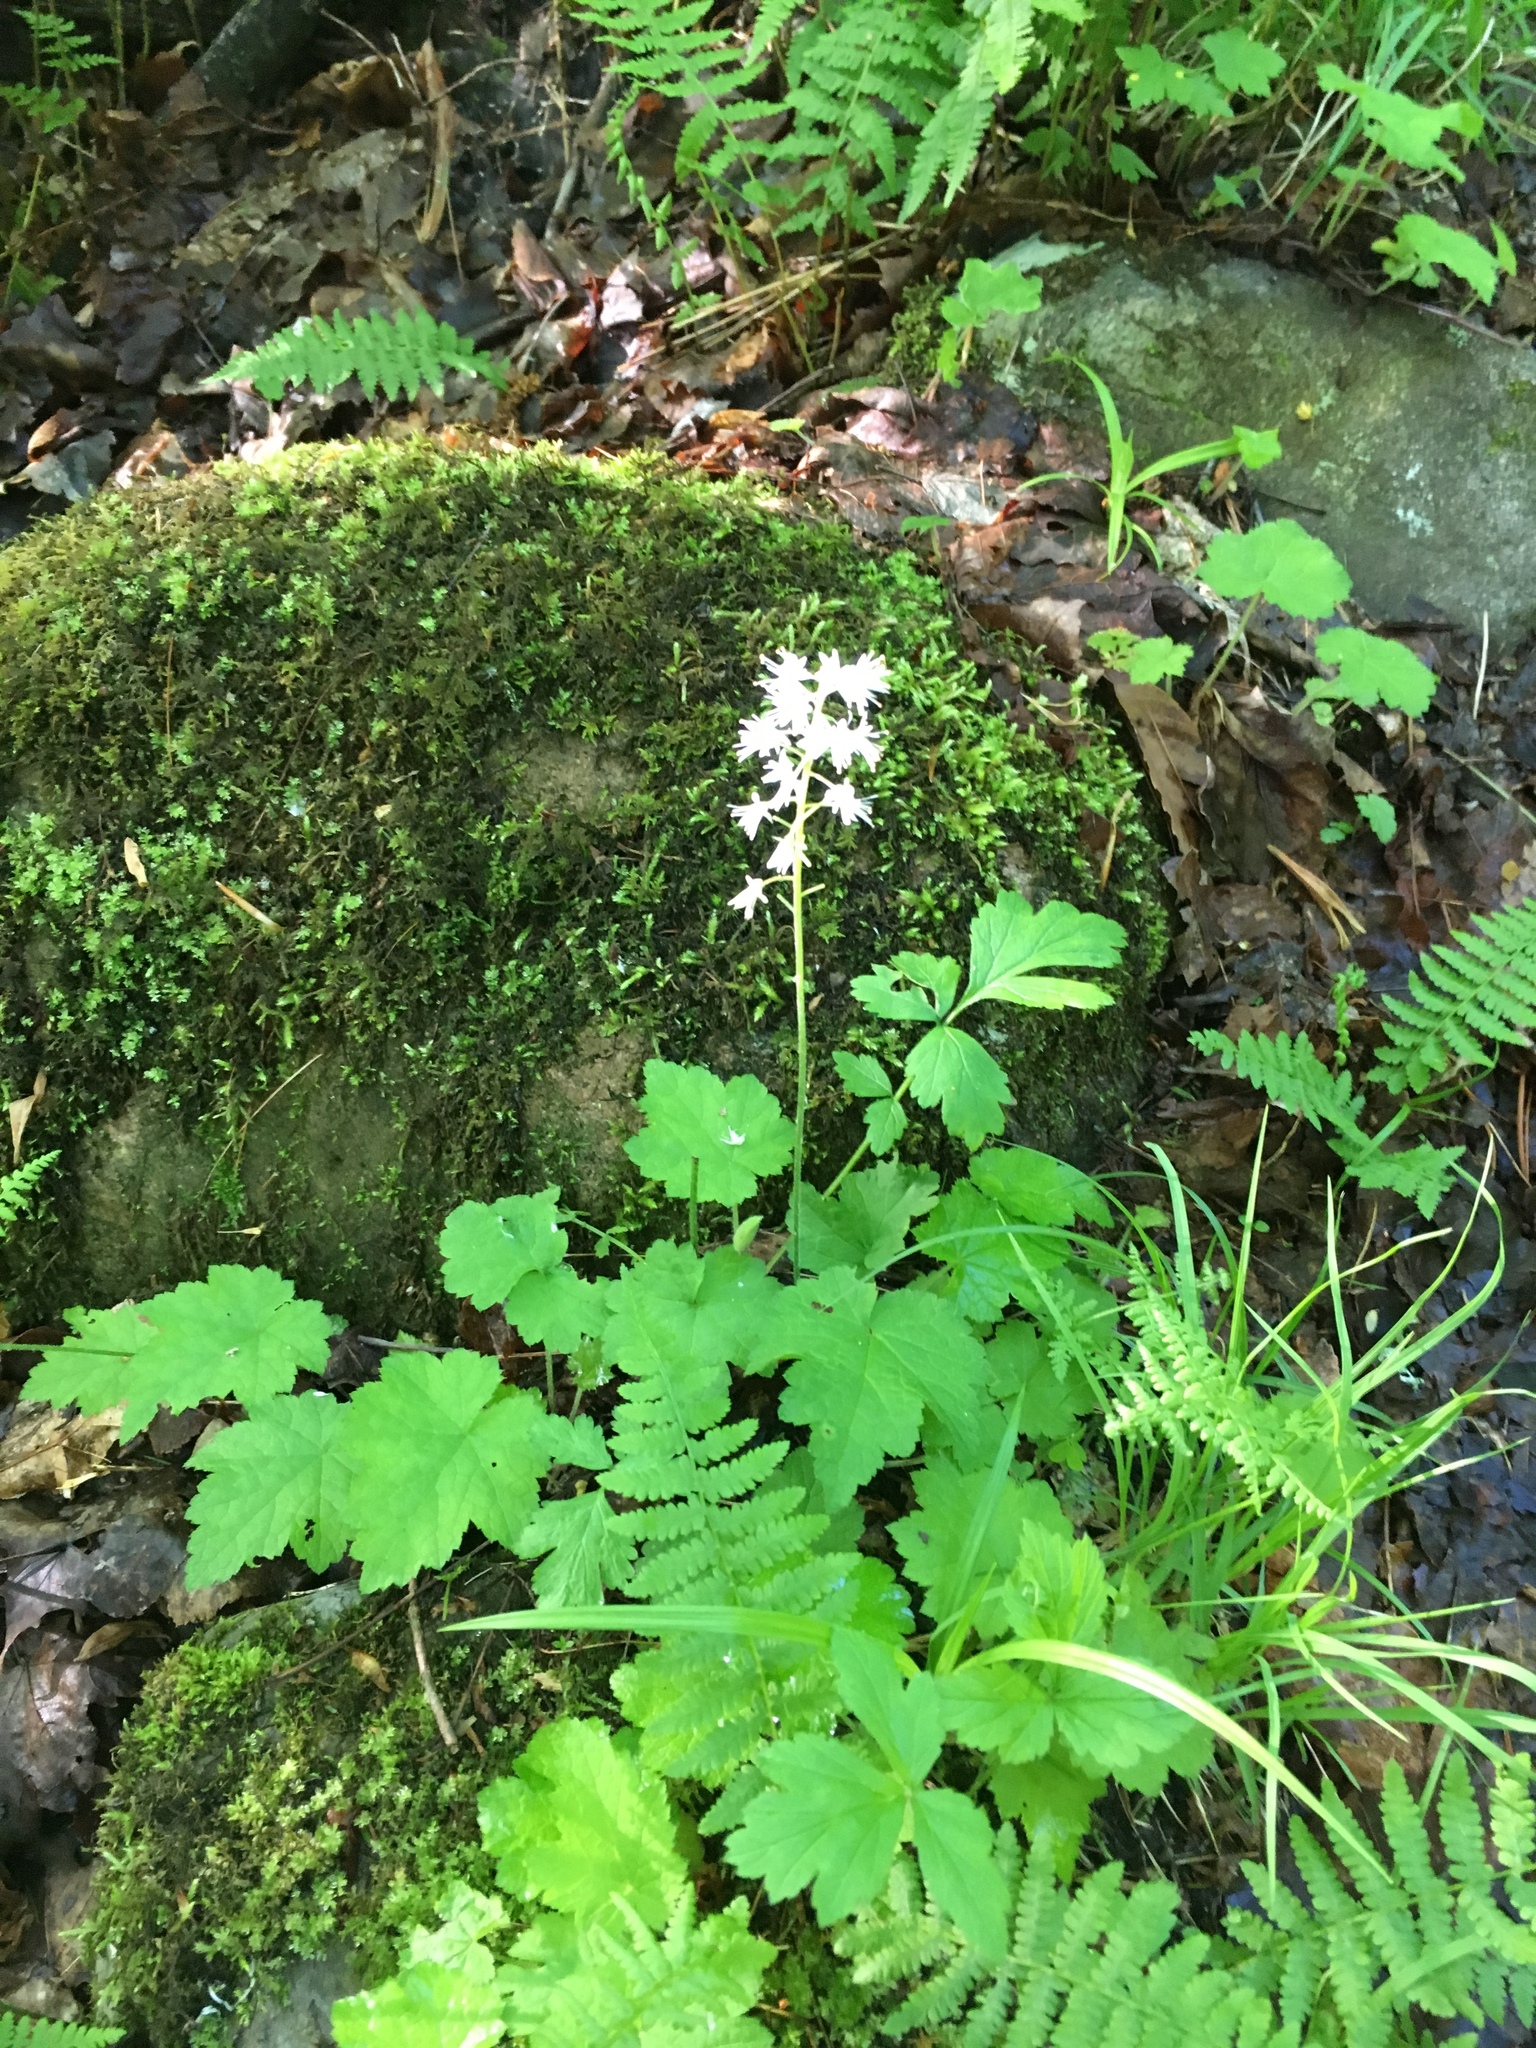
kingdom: Plantae
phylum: Tracheophyta
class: Magnoliopsida
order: Saxifragales
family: Saxifragaceae
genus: Tiarella
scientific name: Tiarella stolonifera
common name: Stoloniferous foamflower
